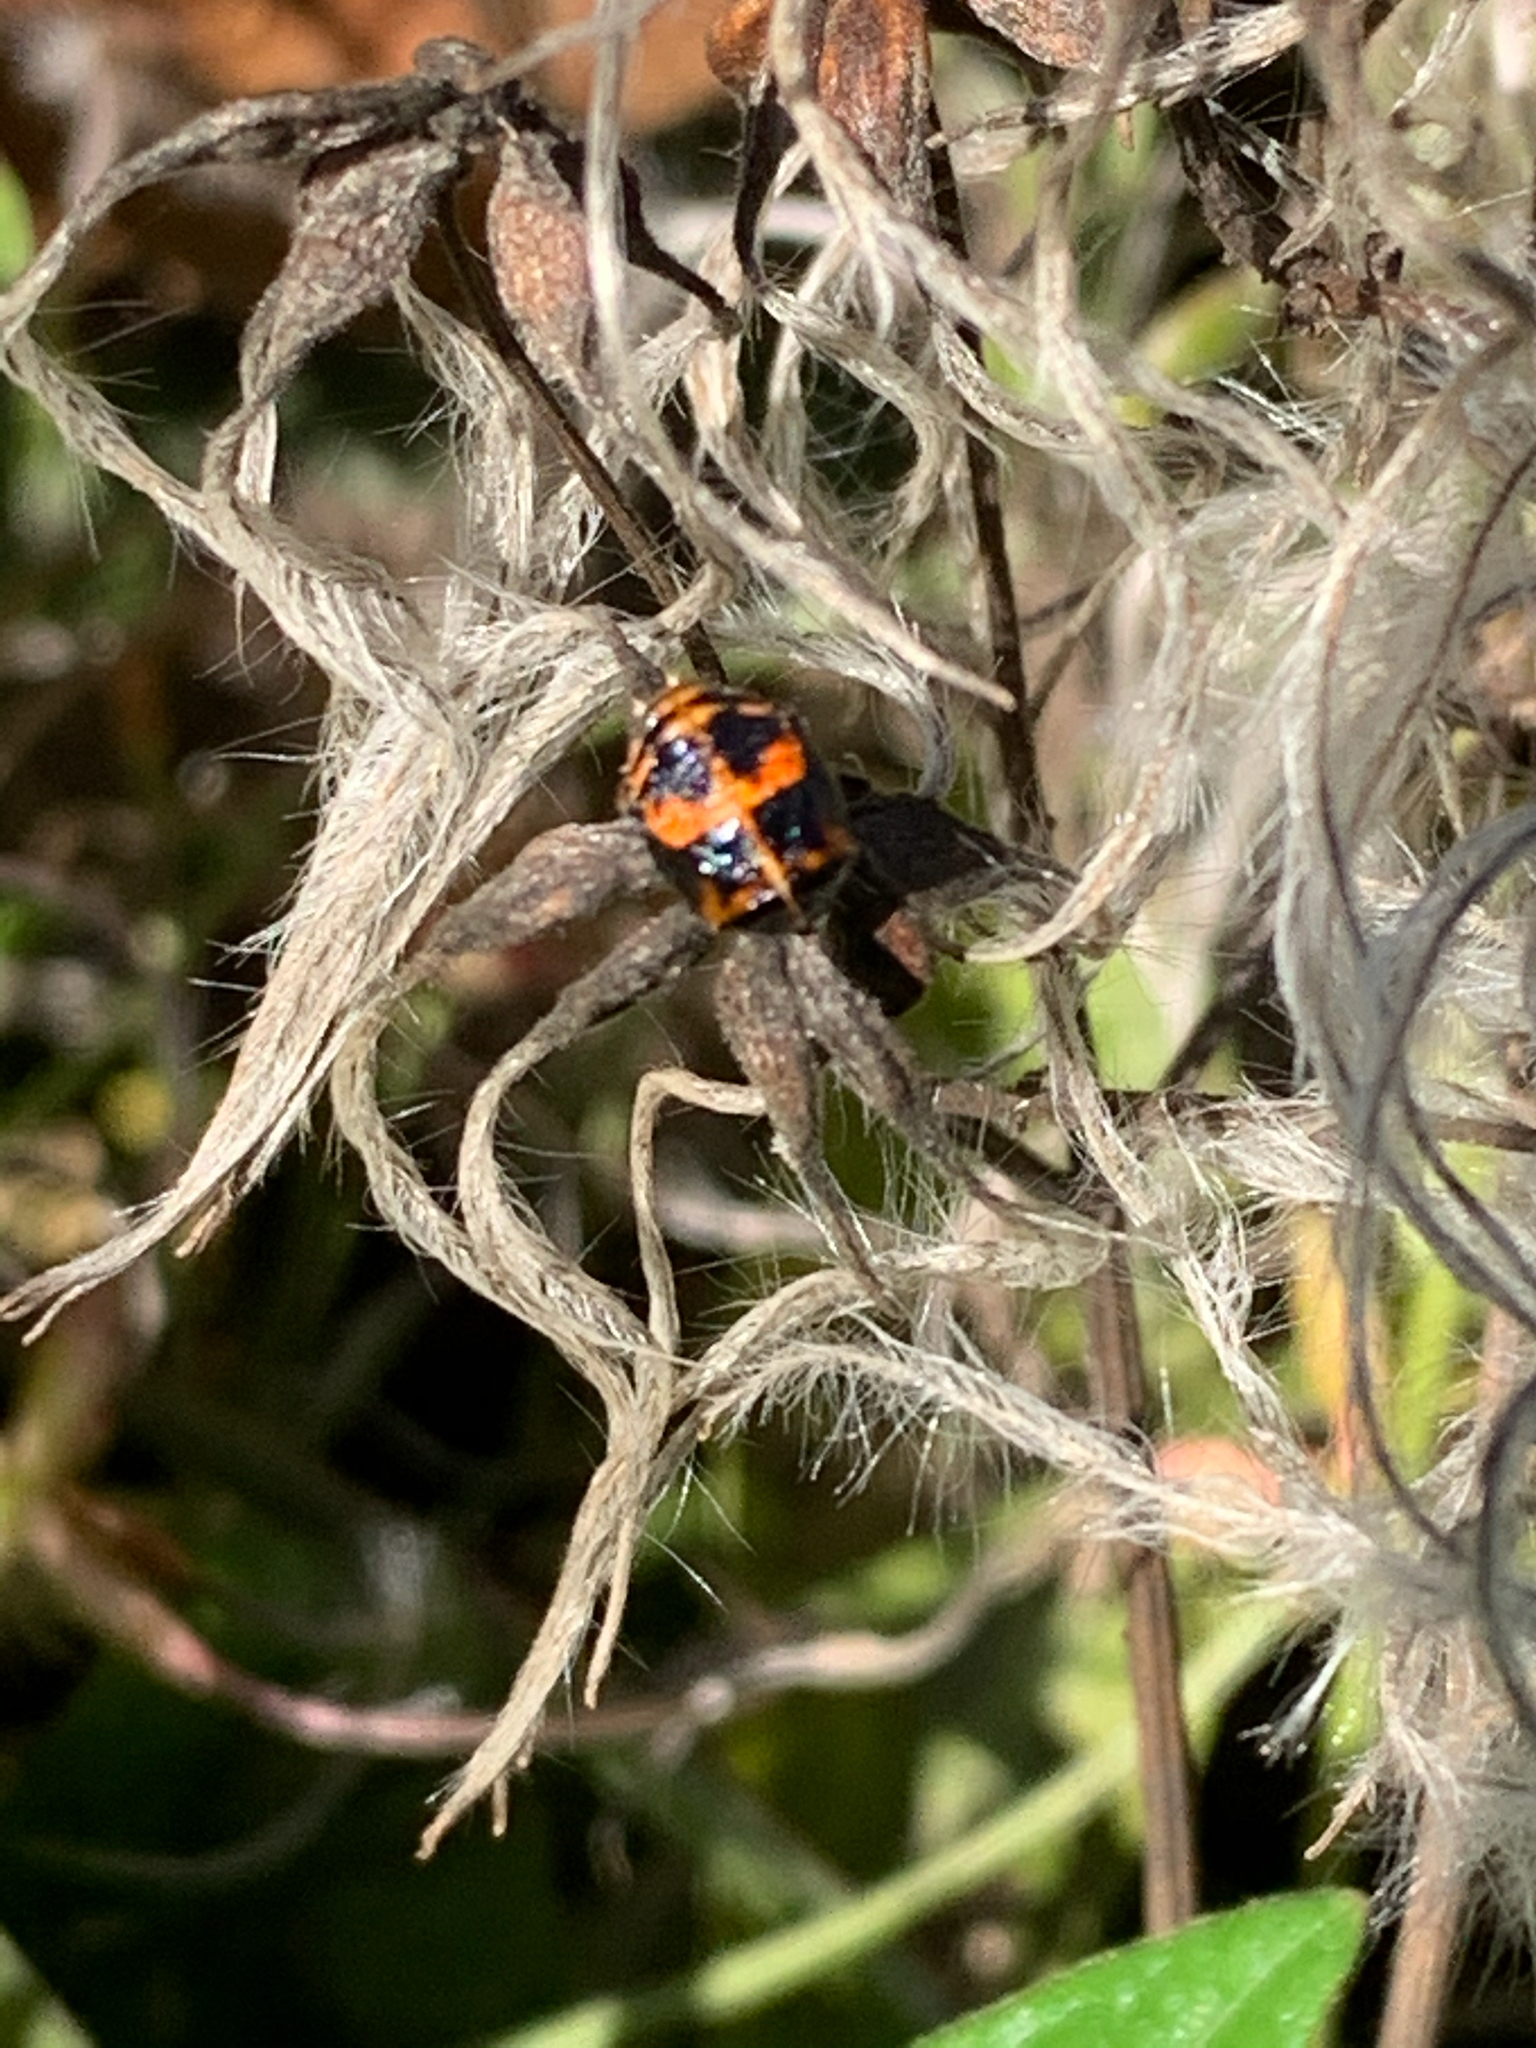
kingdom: Animalia
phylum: Arthropoda
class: Insecta
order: Coleoptera
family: Coccinellidae
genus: Harmonia
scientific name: Harmonia axyridis
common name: Harlequin ladybird
